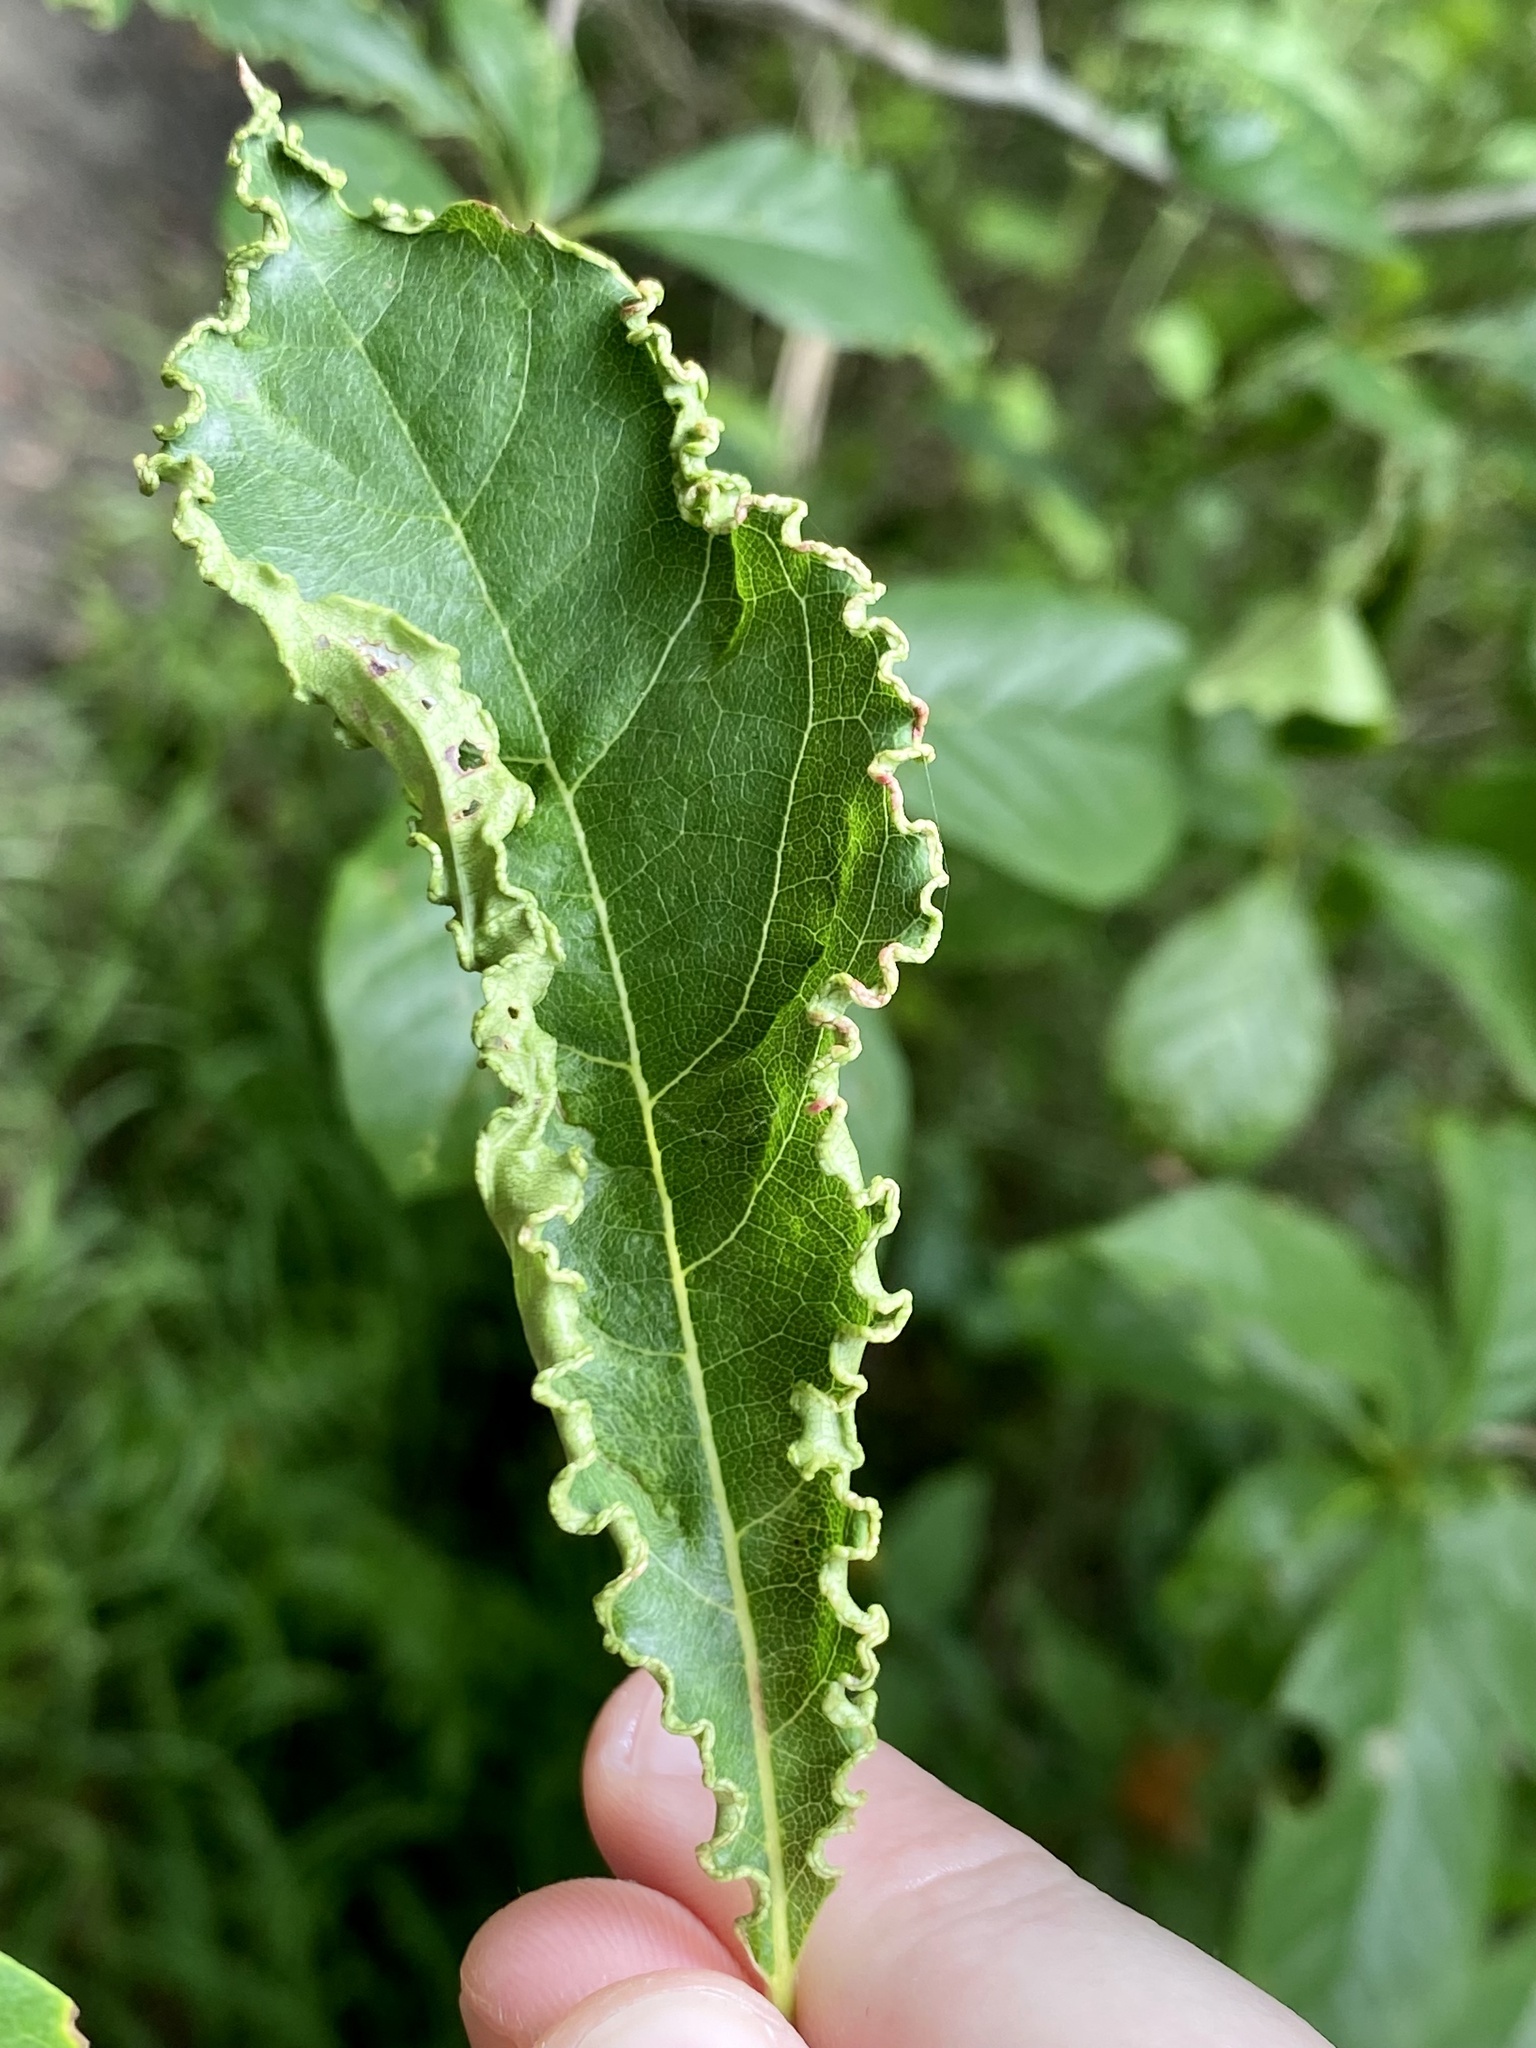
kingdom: Animalia
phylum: Arthropoda
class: Arachnida
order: Trombidiformes
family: Eriophyidae
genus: Aceria
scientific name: Aceria
